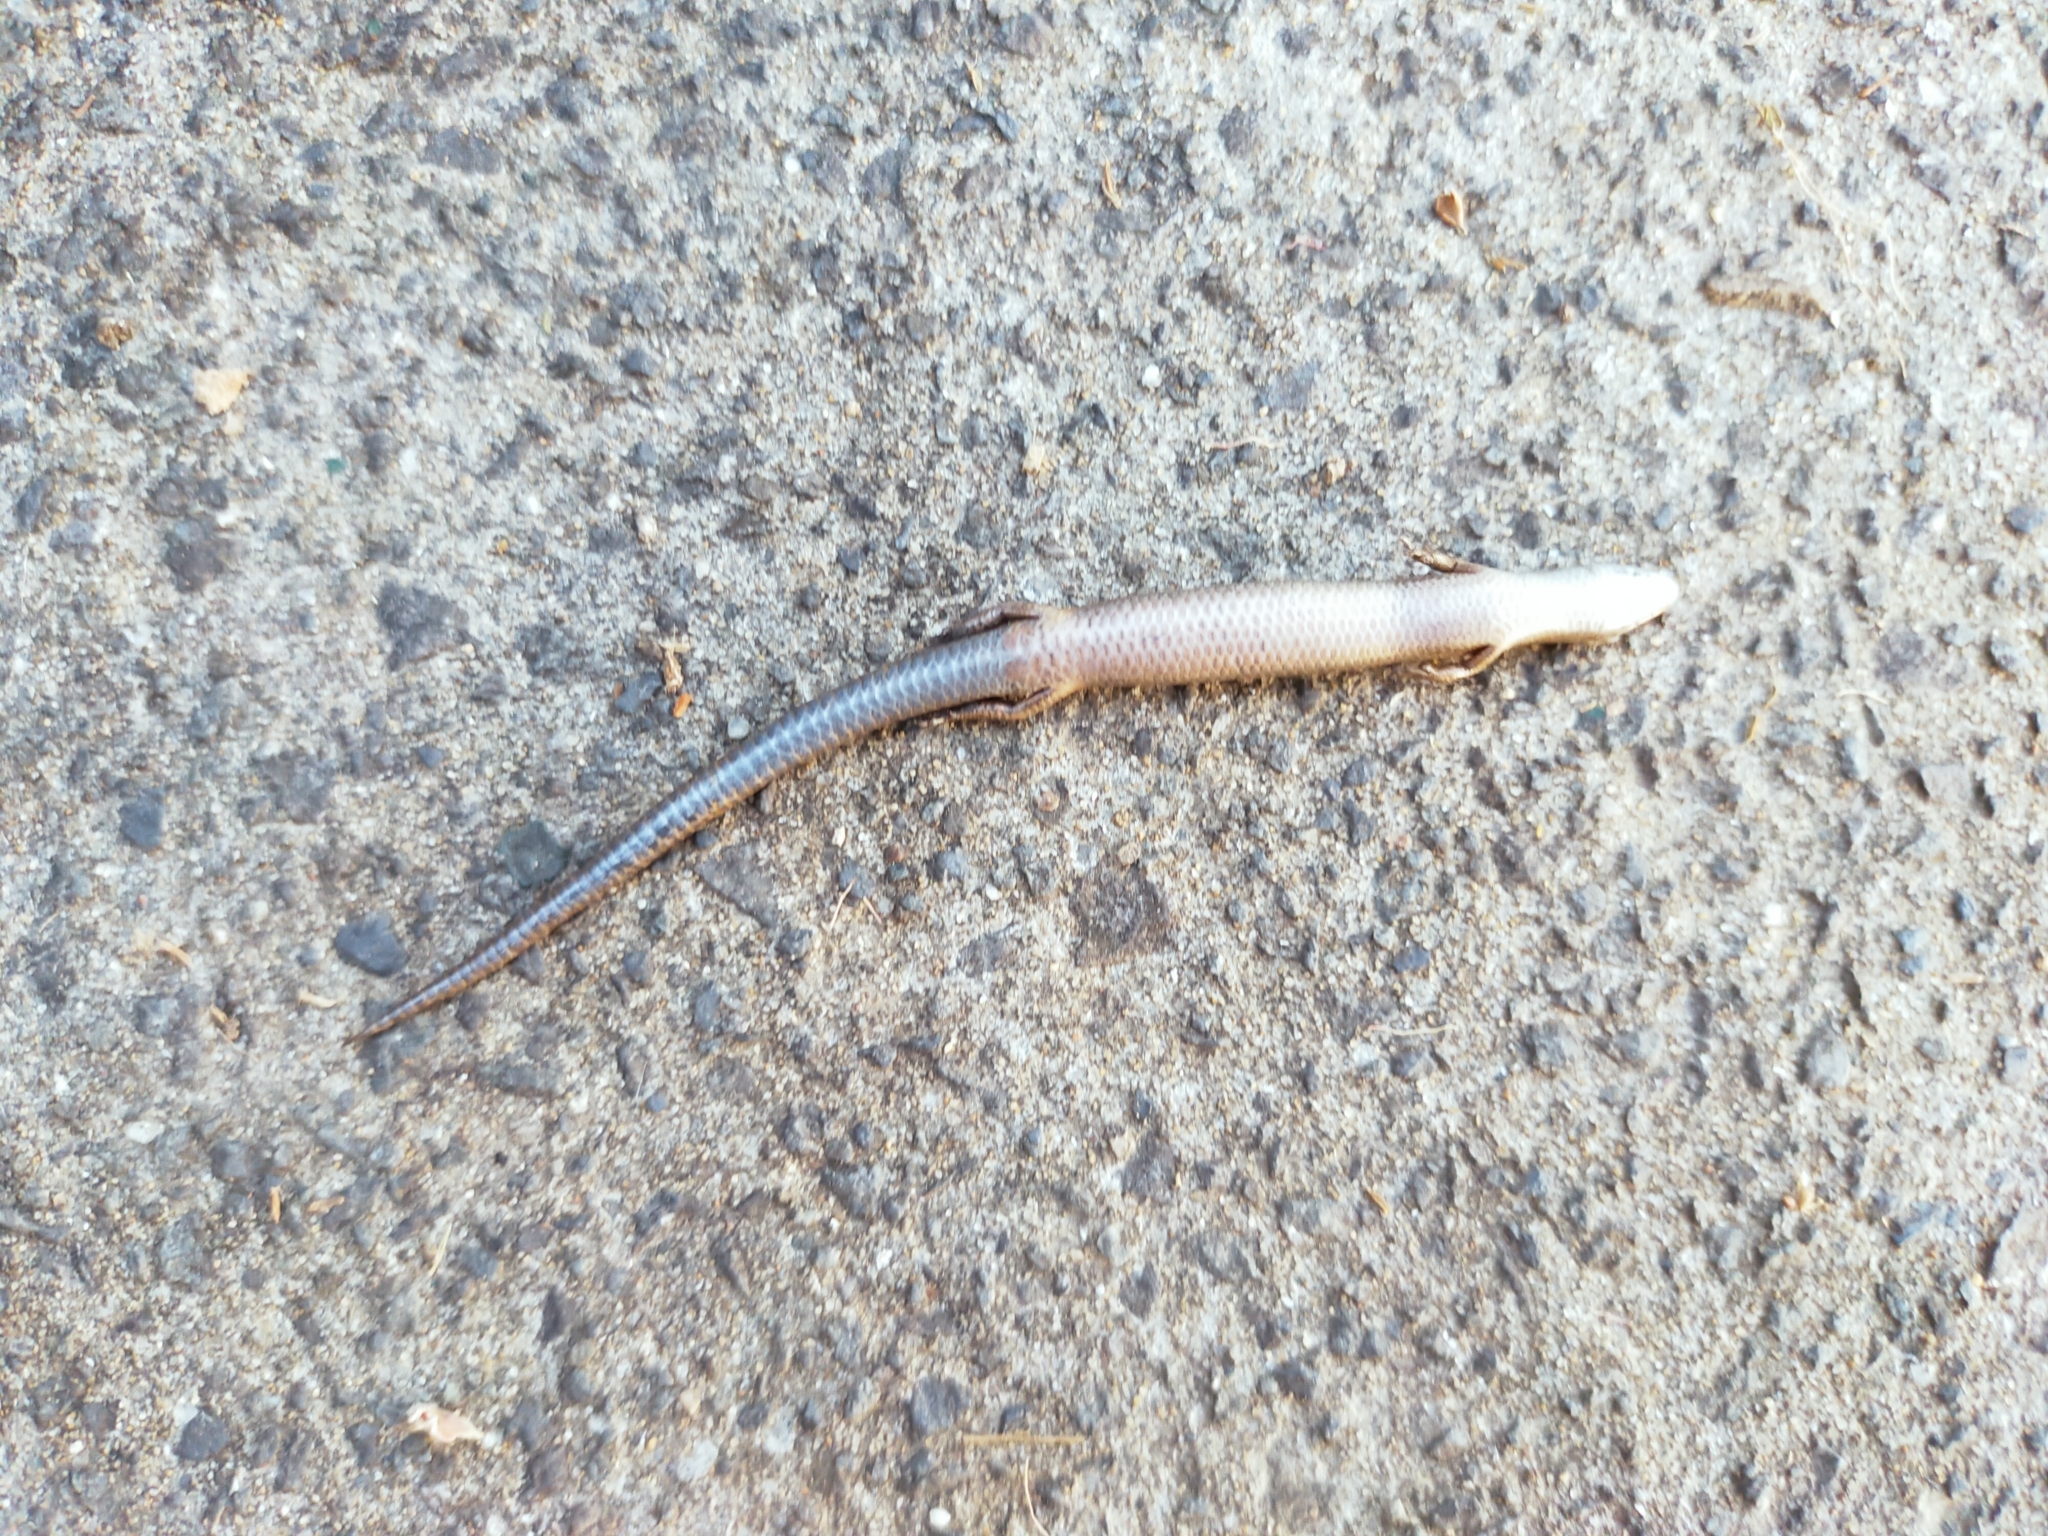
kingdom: Animalia
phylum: Chordata
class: Squamata
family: Scincidae
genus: Ablepharus
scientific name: Ablepharus kitaibelii
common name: Juniper skink
